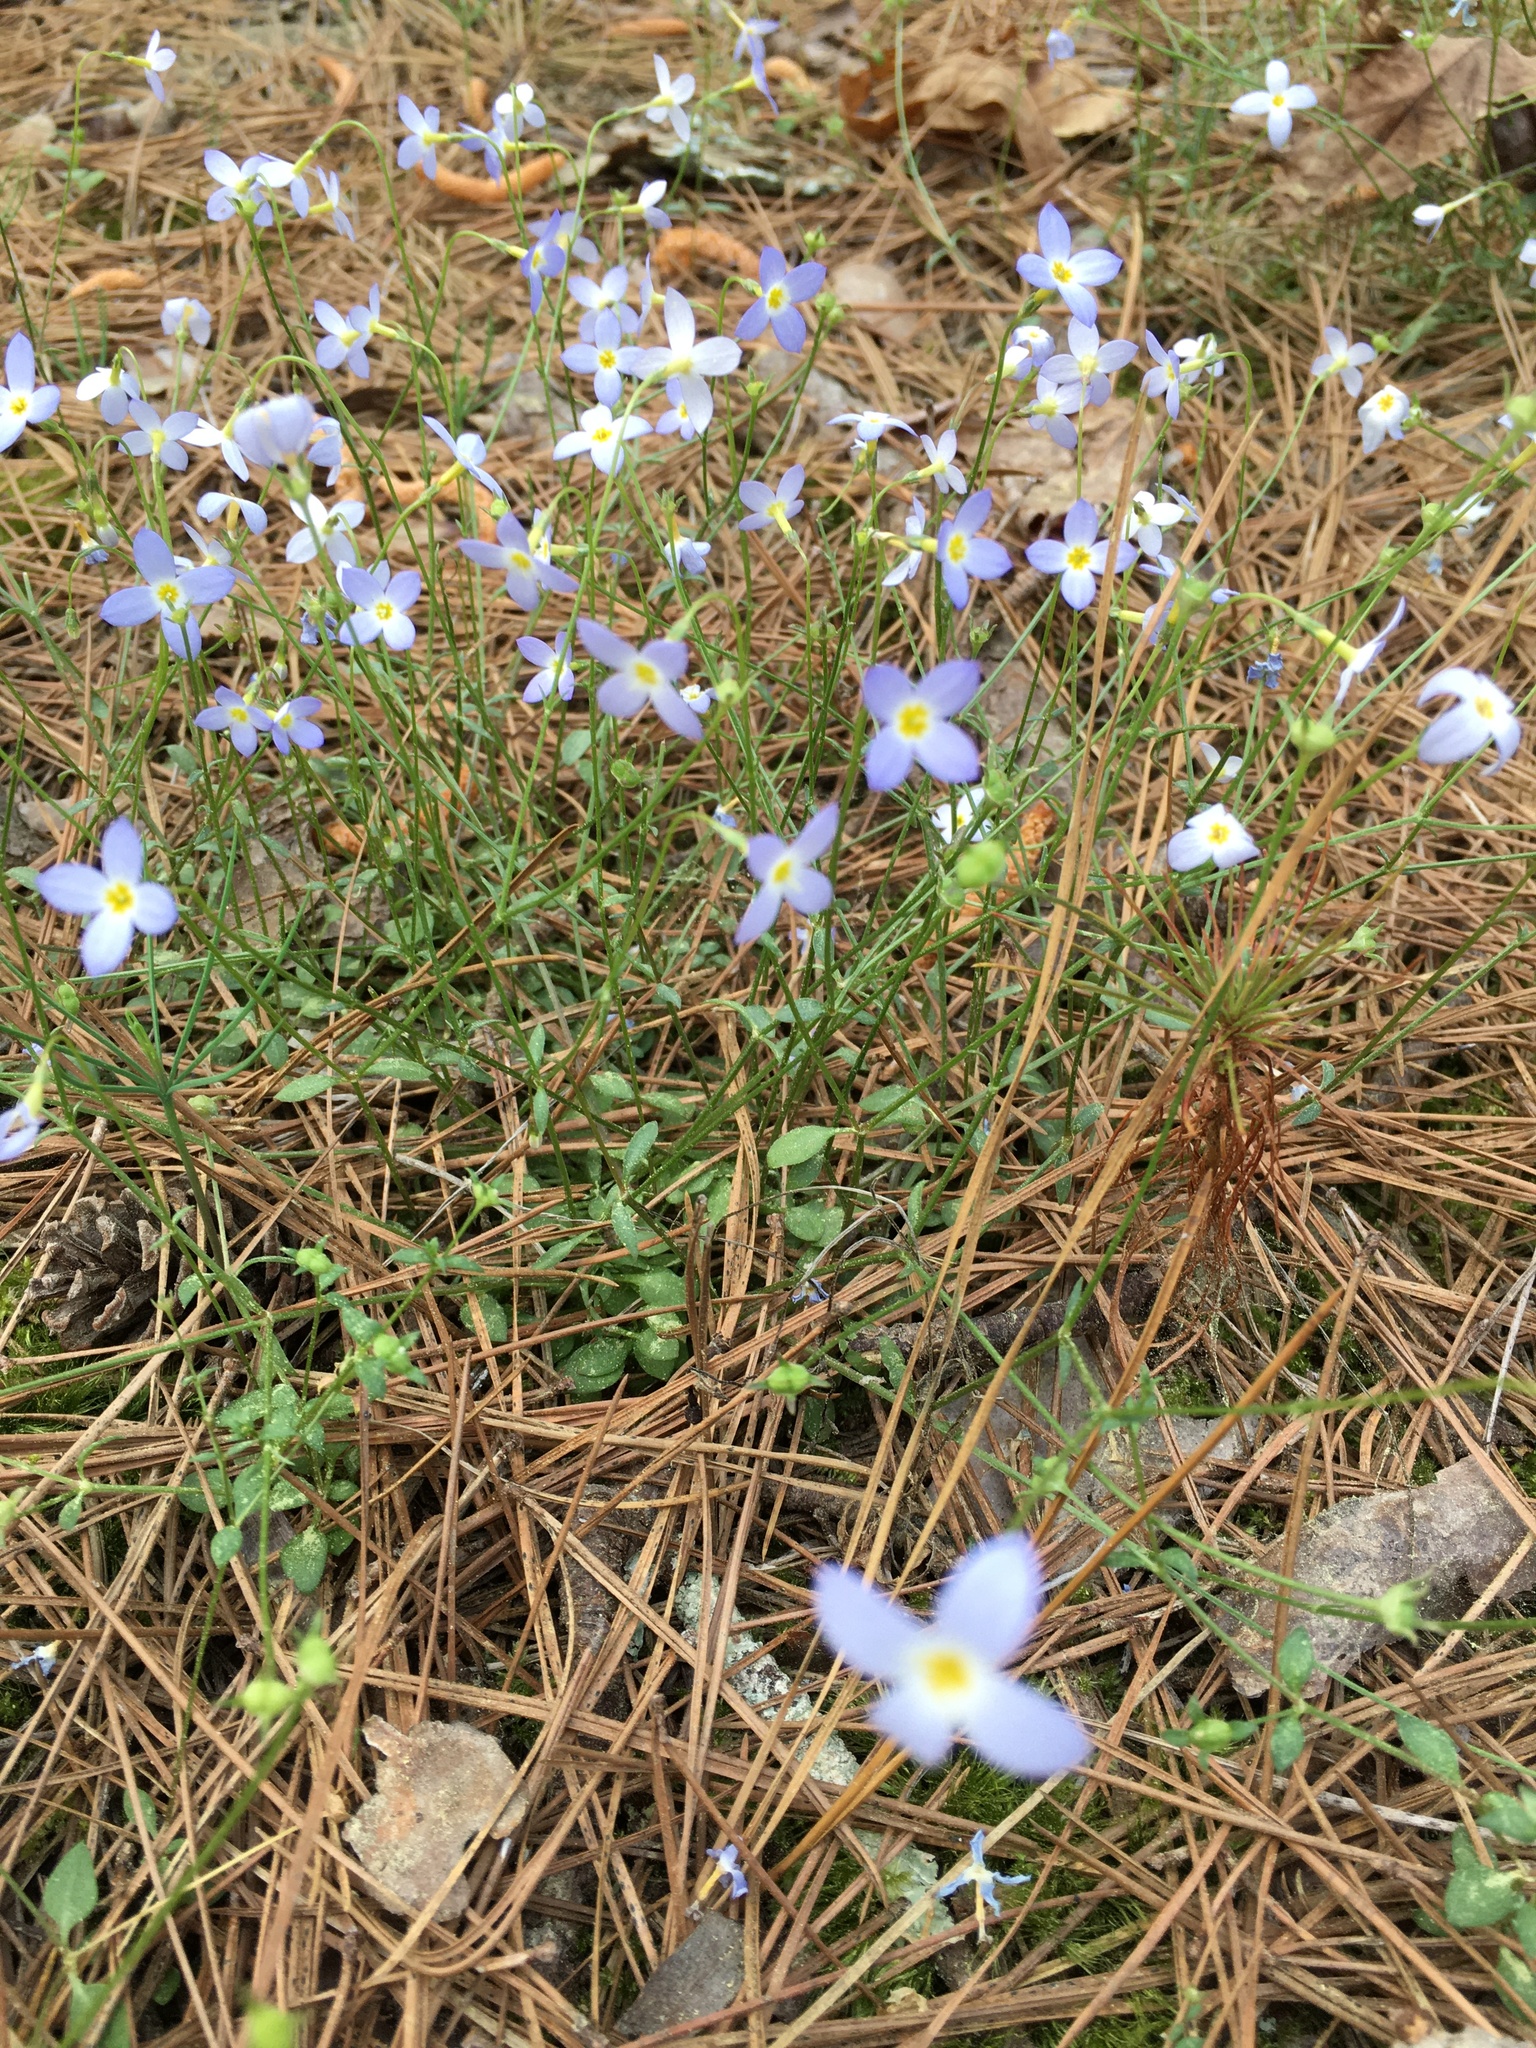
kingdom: Plantae
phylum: Tracheophyta
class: Magnoliopsida
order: Gentianales
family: Rubiaceae
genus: Houstonia
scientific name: Houstonia caerulea
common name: Bluets
